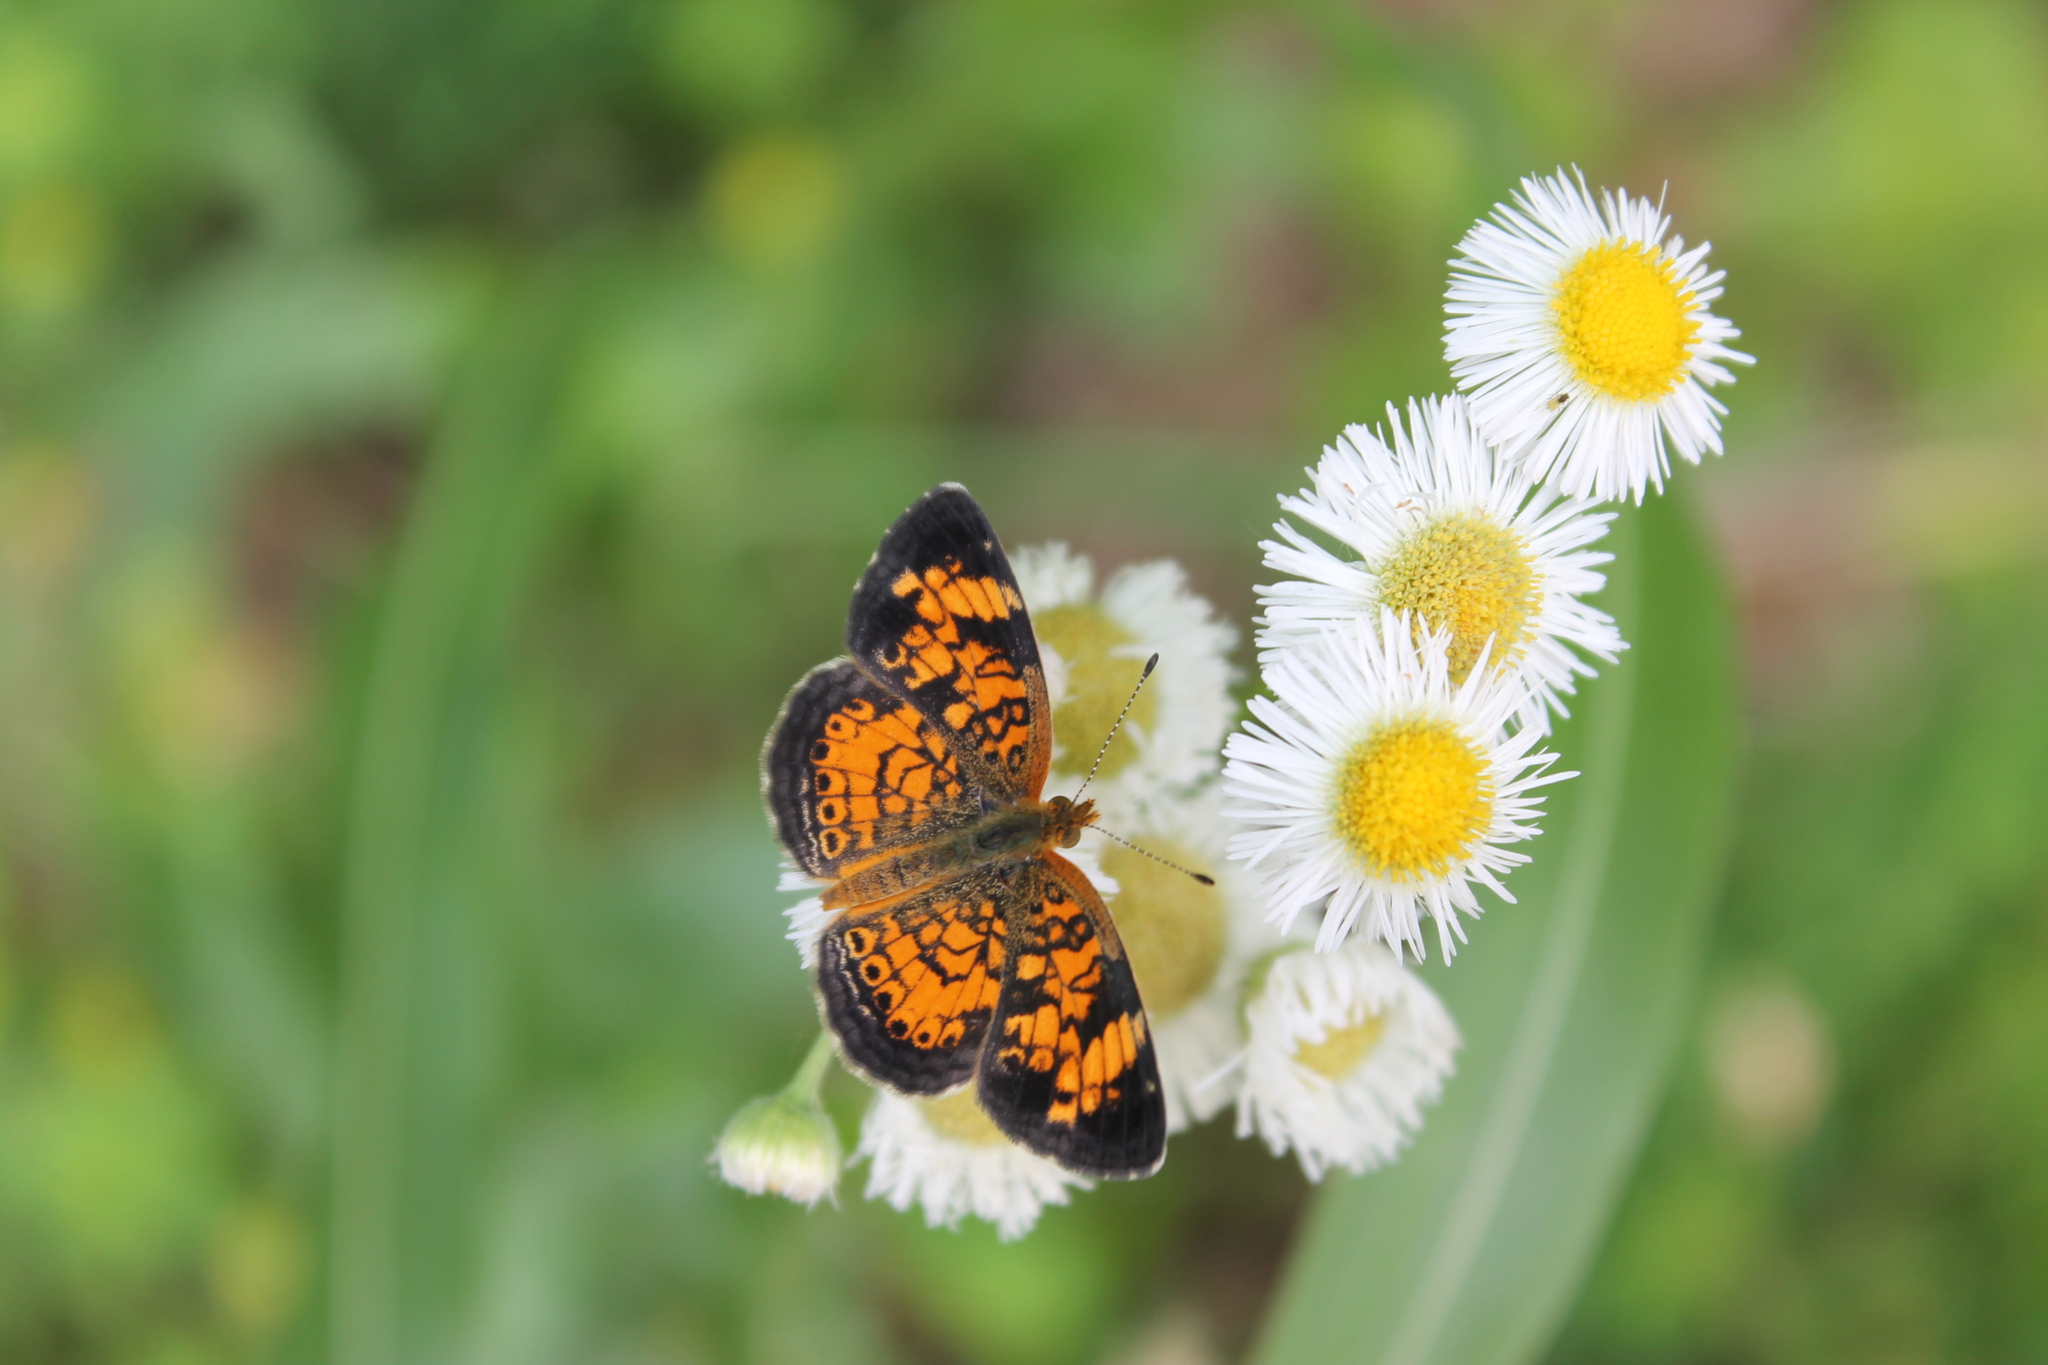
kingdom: Animalia
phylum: Arthropoda
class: Insecta
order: Lepidoptera
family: Nymphalidae
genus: Phyciodes
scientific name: Phyciodes tharos
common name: Pearl crescent
